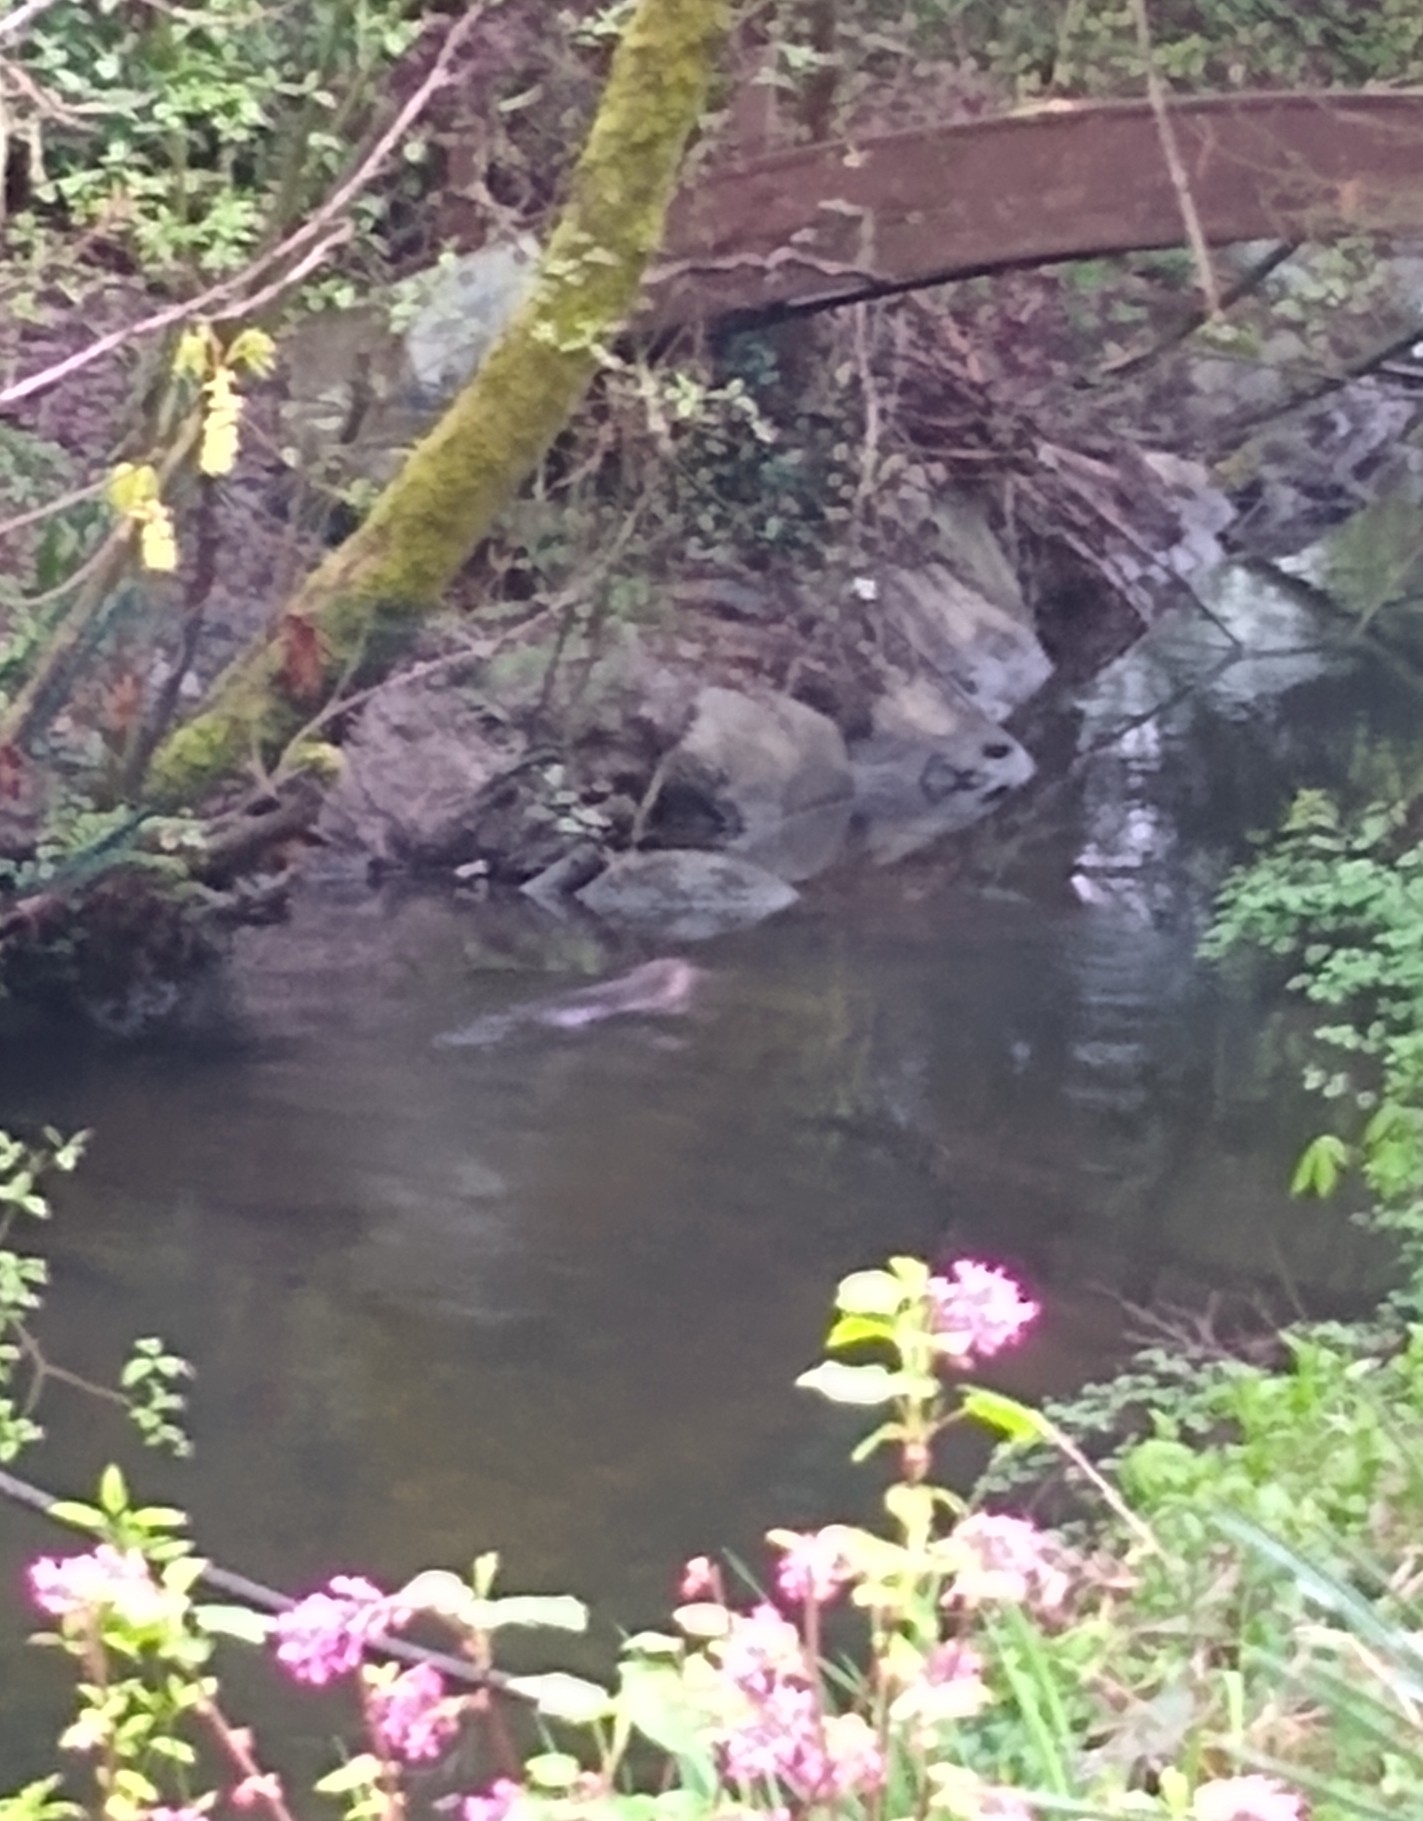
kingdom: Animalia
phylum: Chordata
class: Mammalia
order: Rodentia
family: Castoridae
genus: Castor
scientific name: Castor canadensis
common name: American beaver
